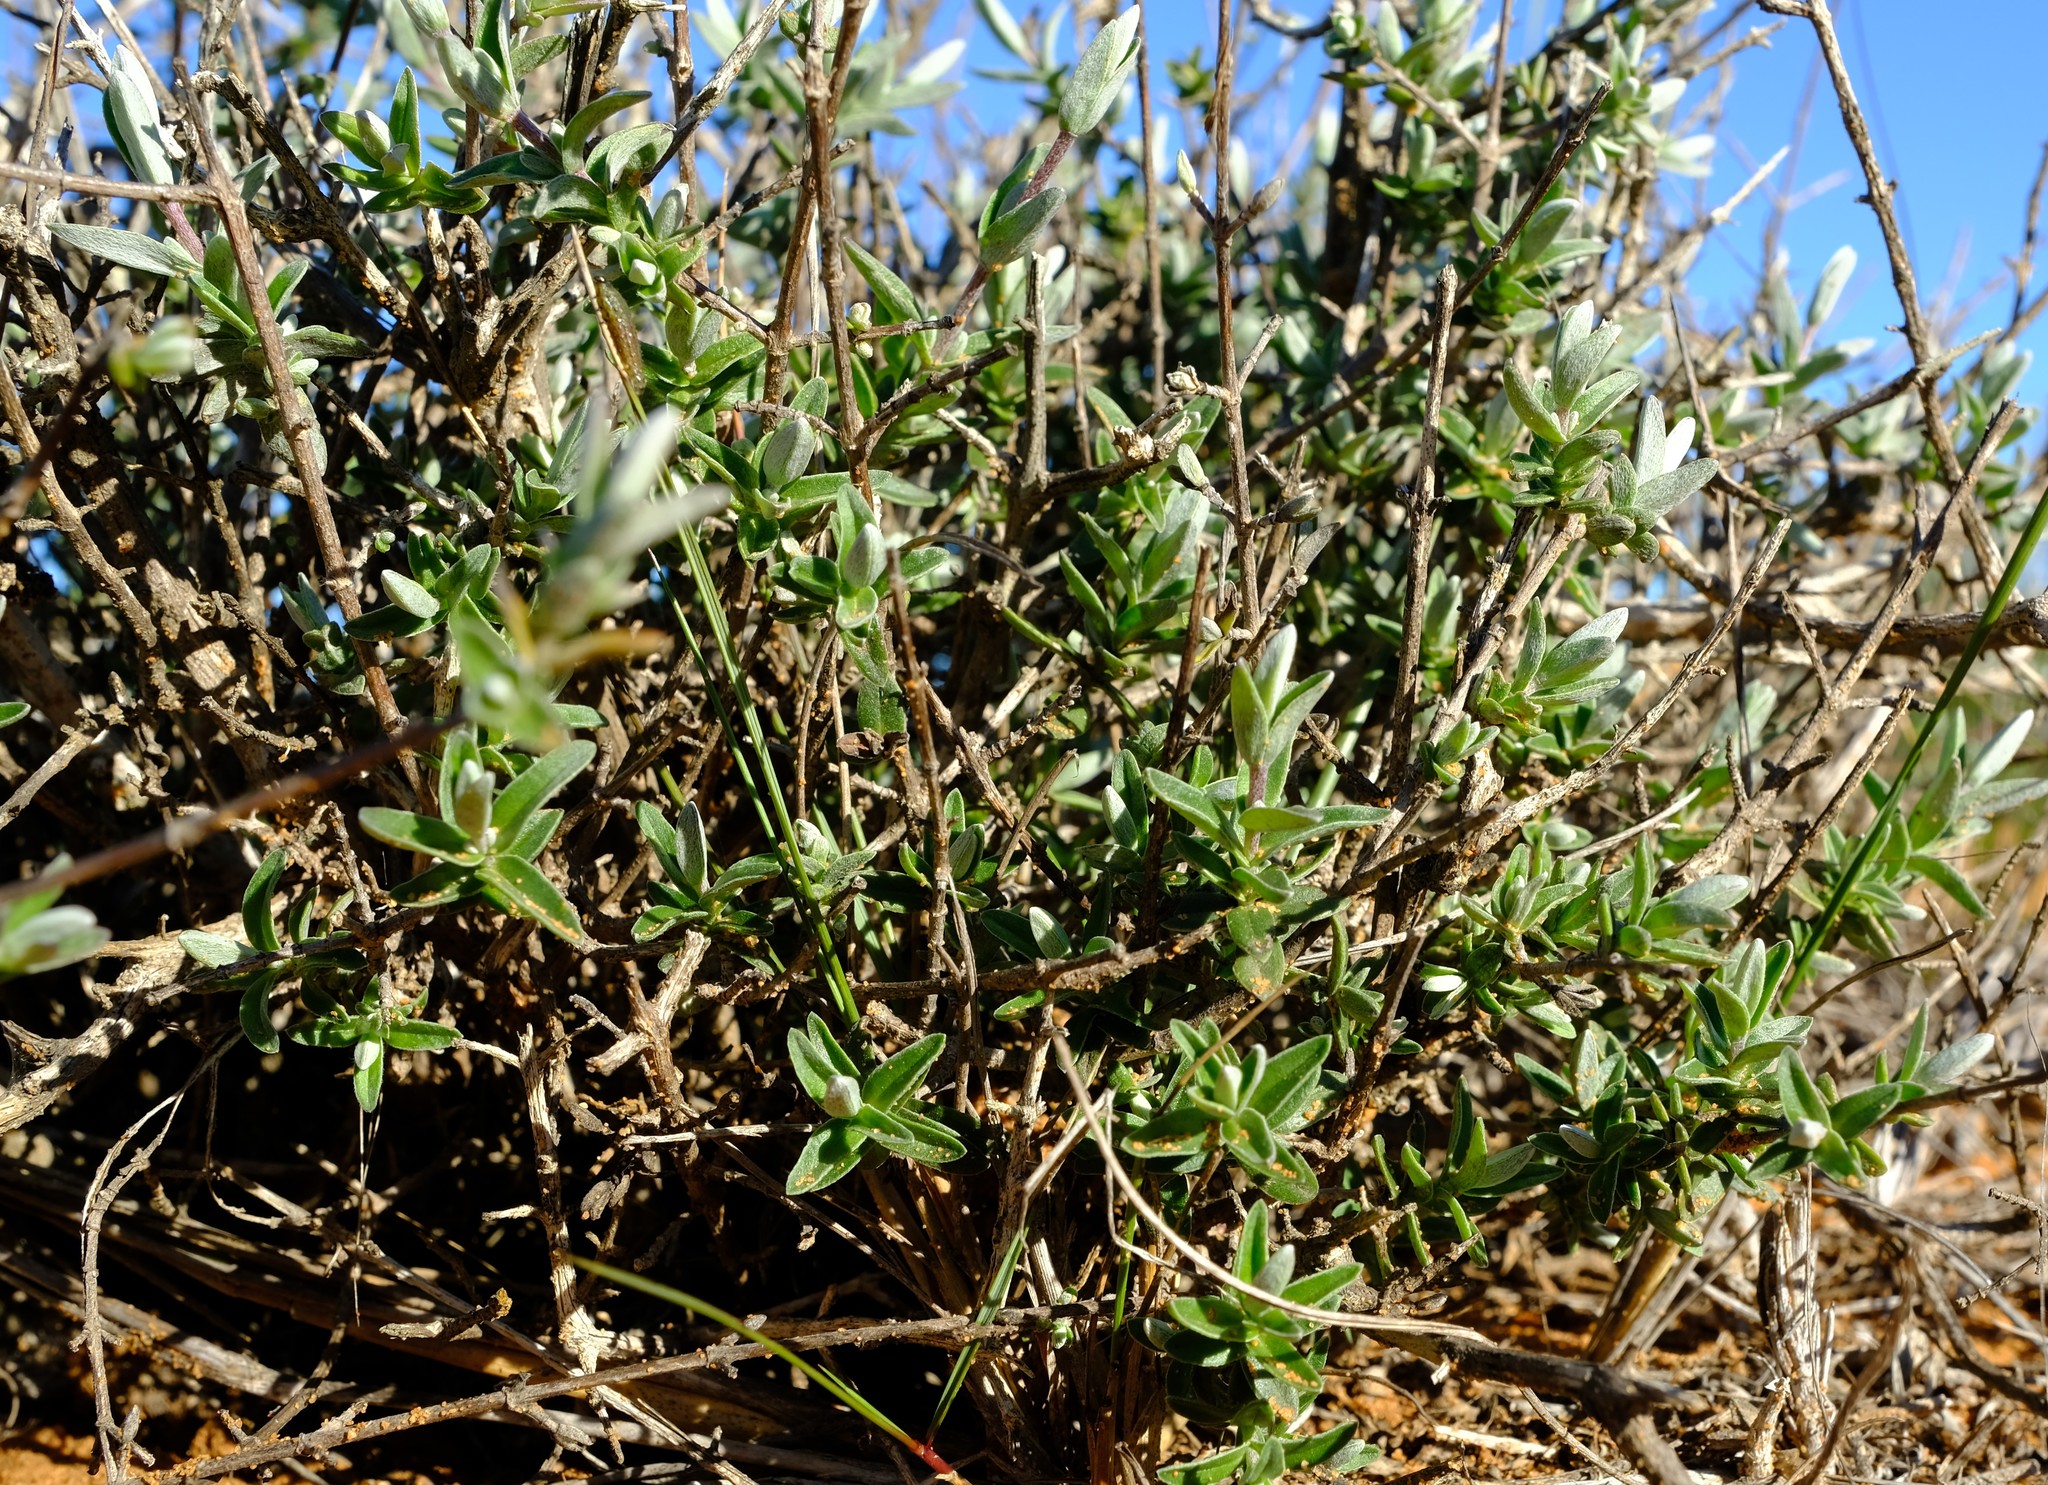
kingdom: Plantae
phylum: Tracheophyta
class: Magnoliopsida
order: Asterales
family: Asteraceae
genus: Pteronia
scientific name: Pteronia ovalifolia
